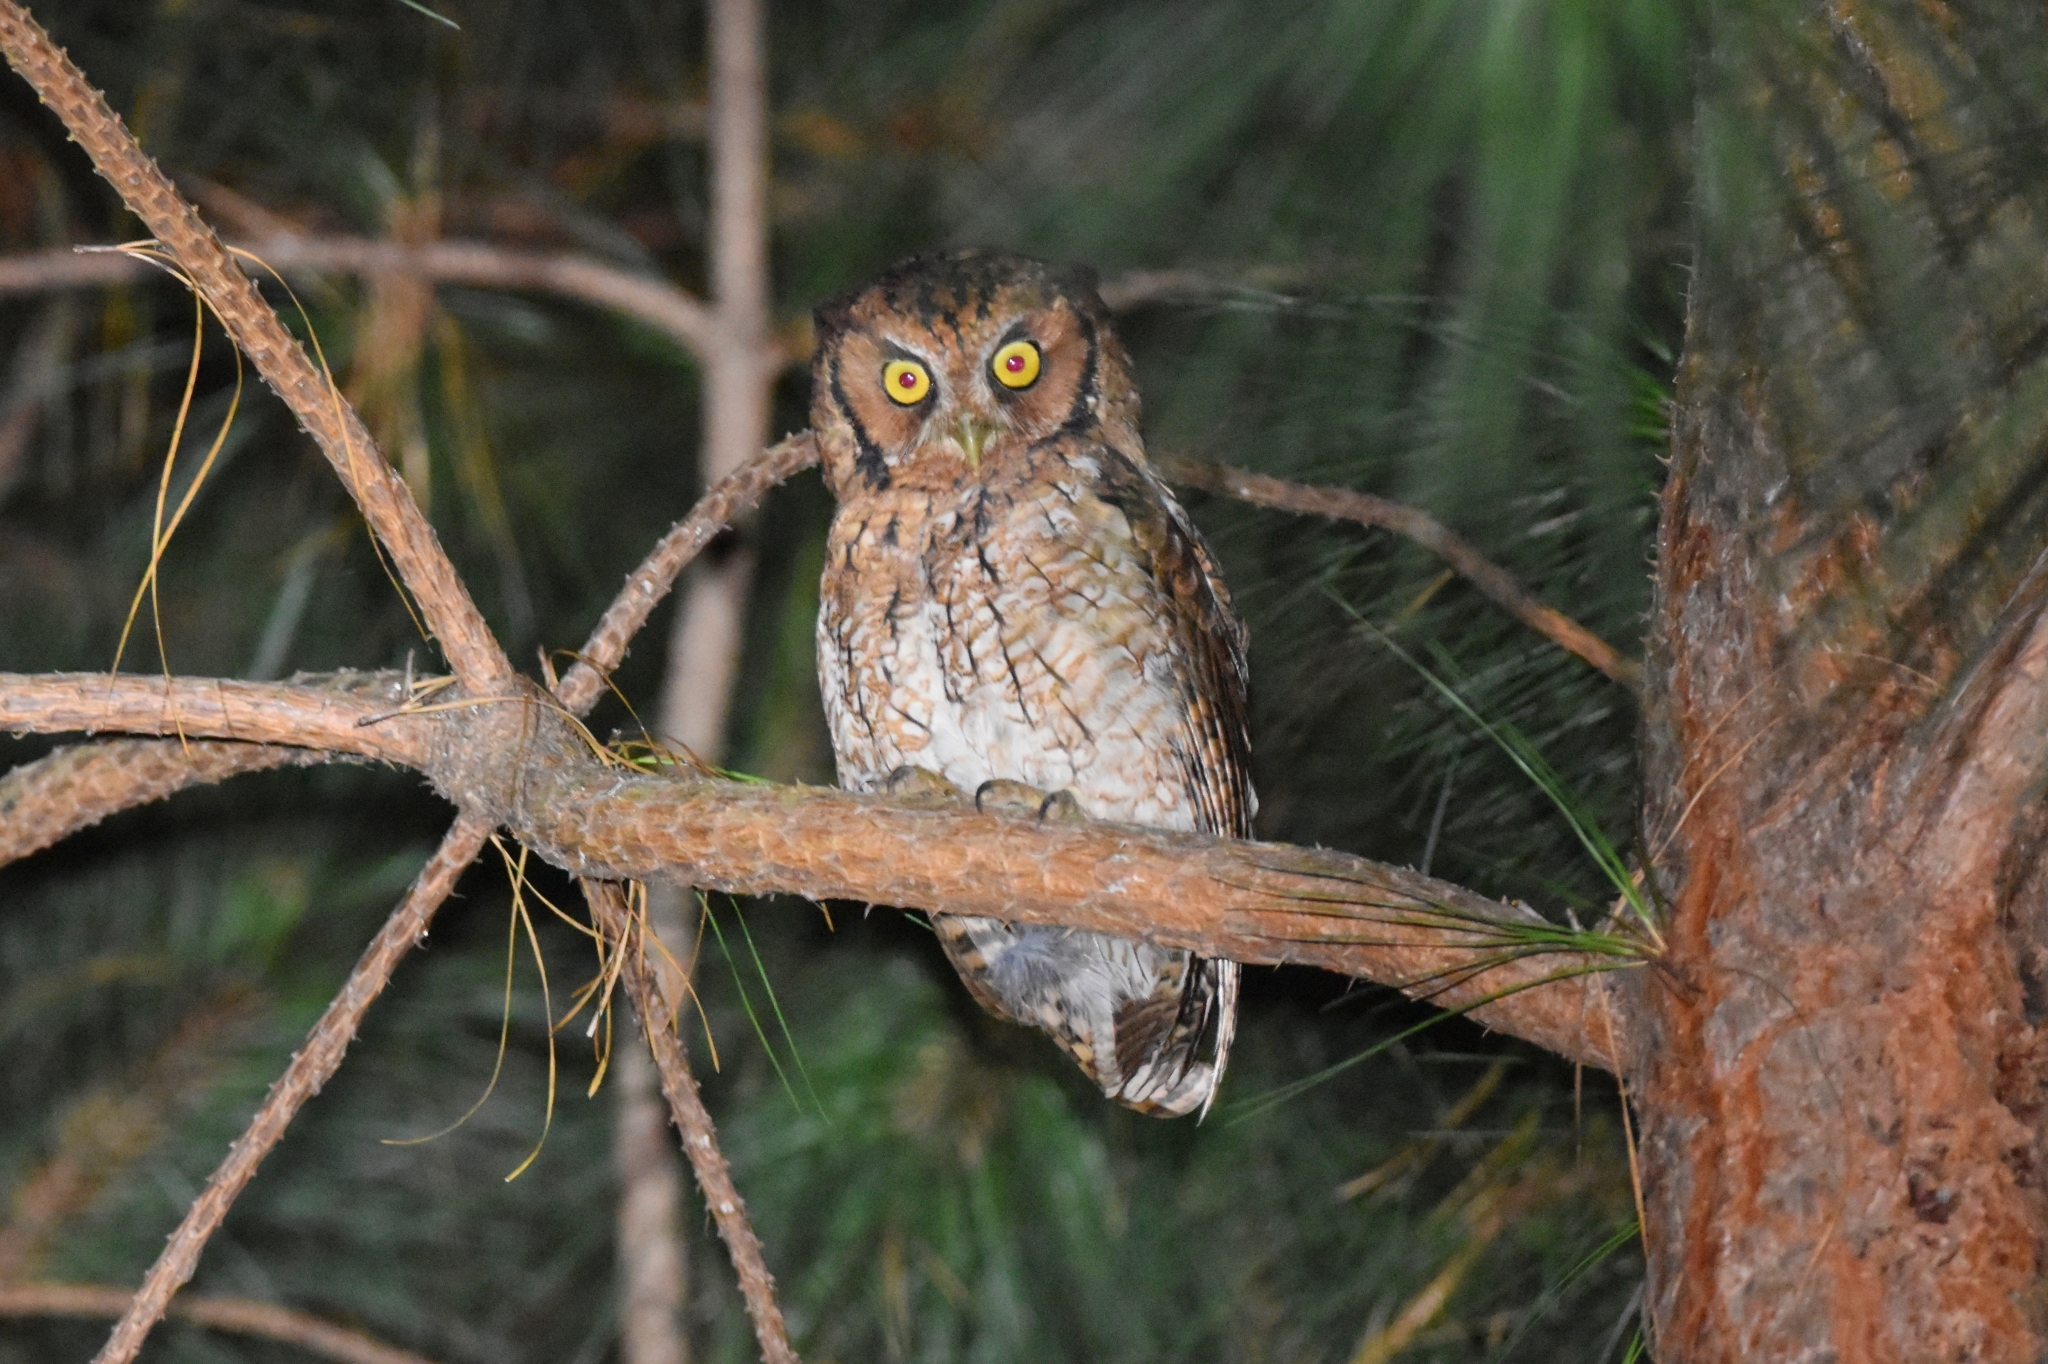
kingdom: Animalia
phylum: Chordata
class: Aves
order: Strigiformes
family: Strigidae
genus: Megascops
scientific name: Megascops sanctaecatarinae
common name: Long-tufted screech owl
